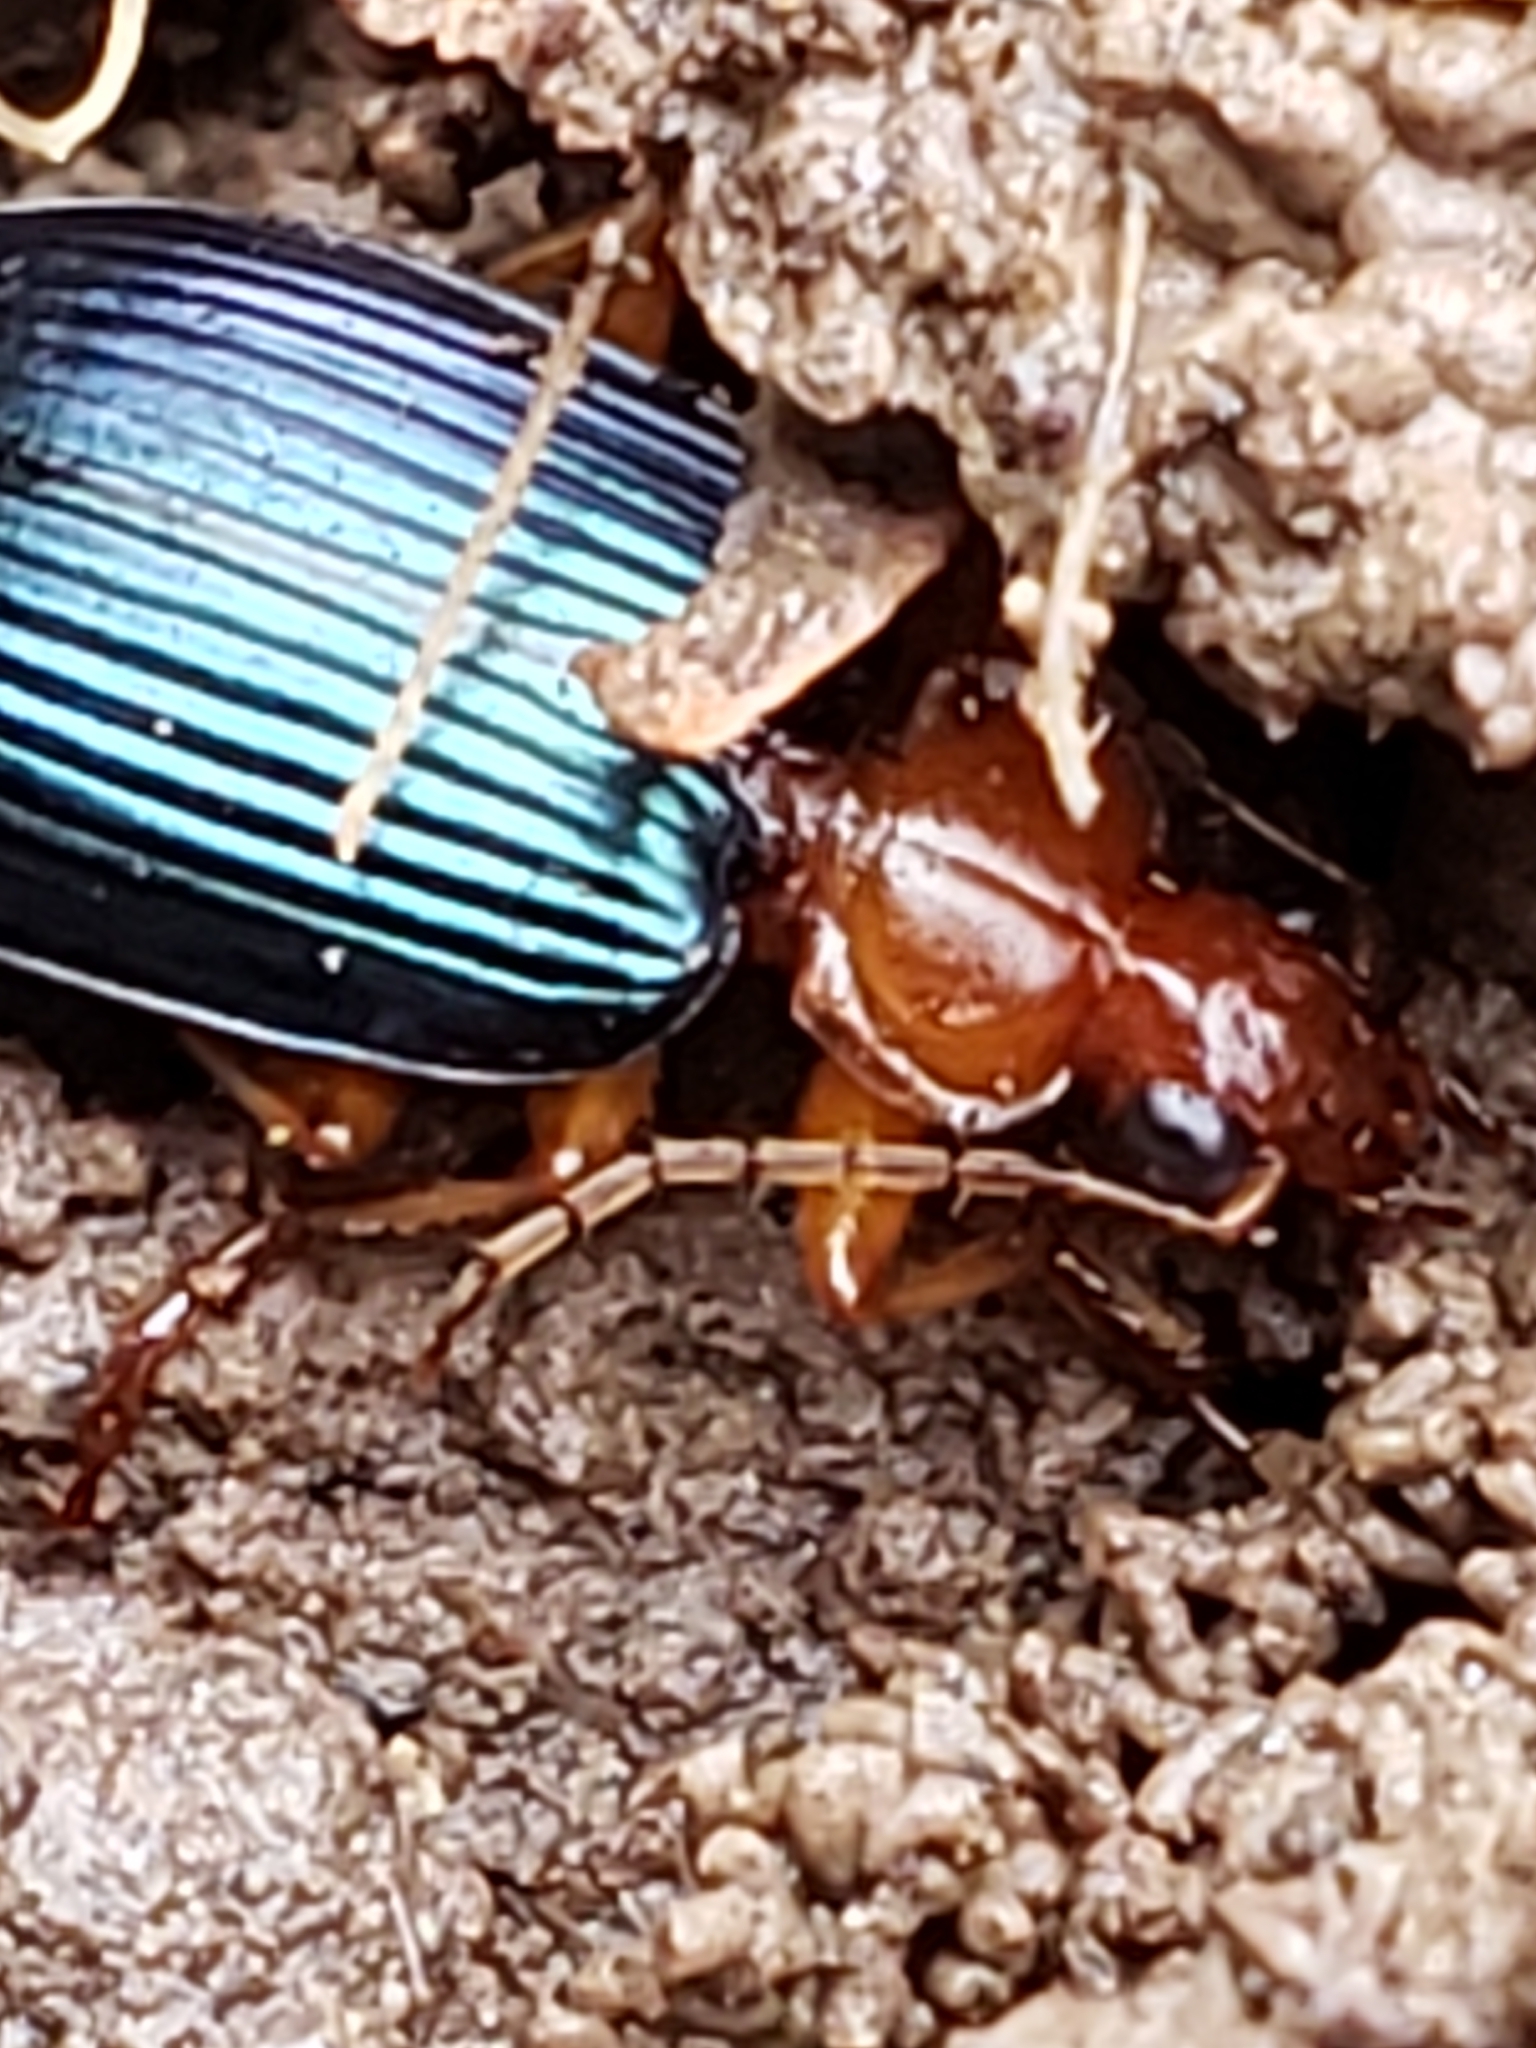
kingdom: Animalia
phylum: Arthropoda
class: Insecta
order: Coleoptera
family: Carabidae
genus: Lebia
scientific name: Lebia grandis
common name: Large foliage ground beetle
